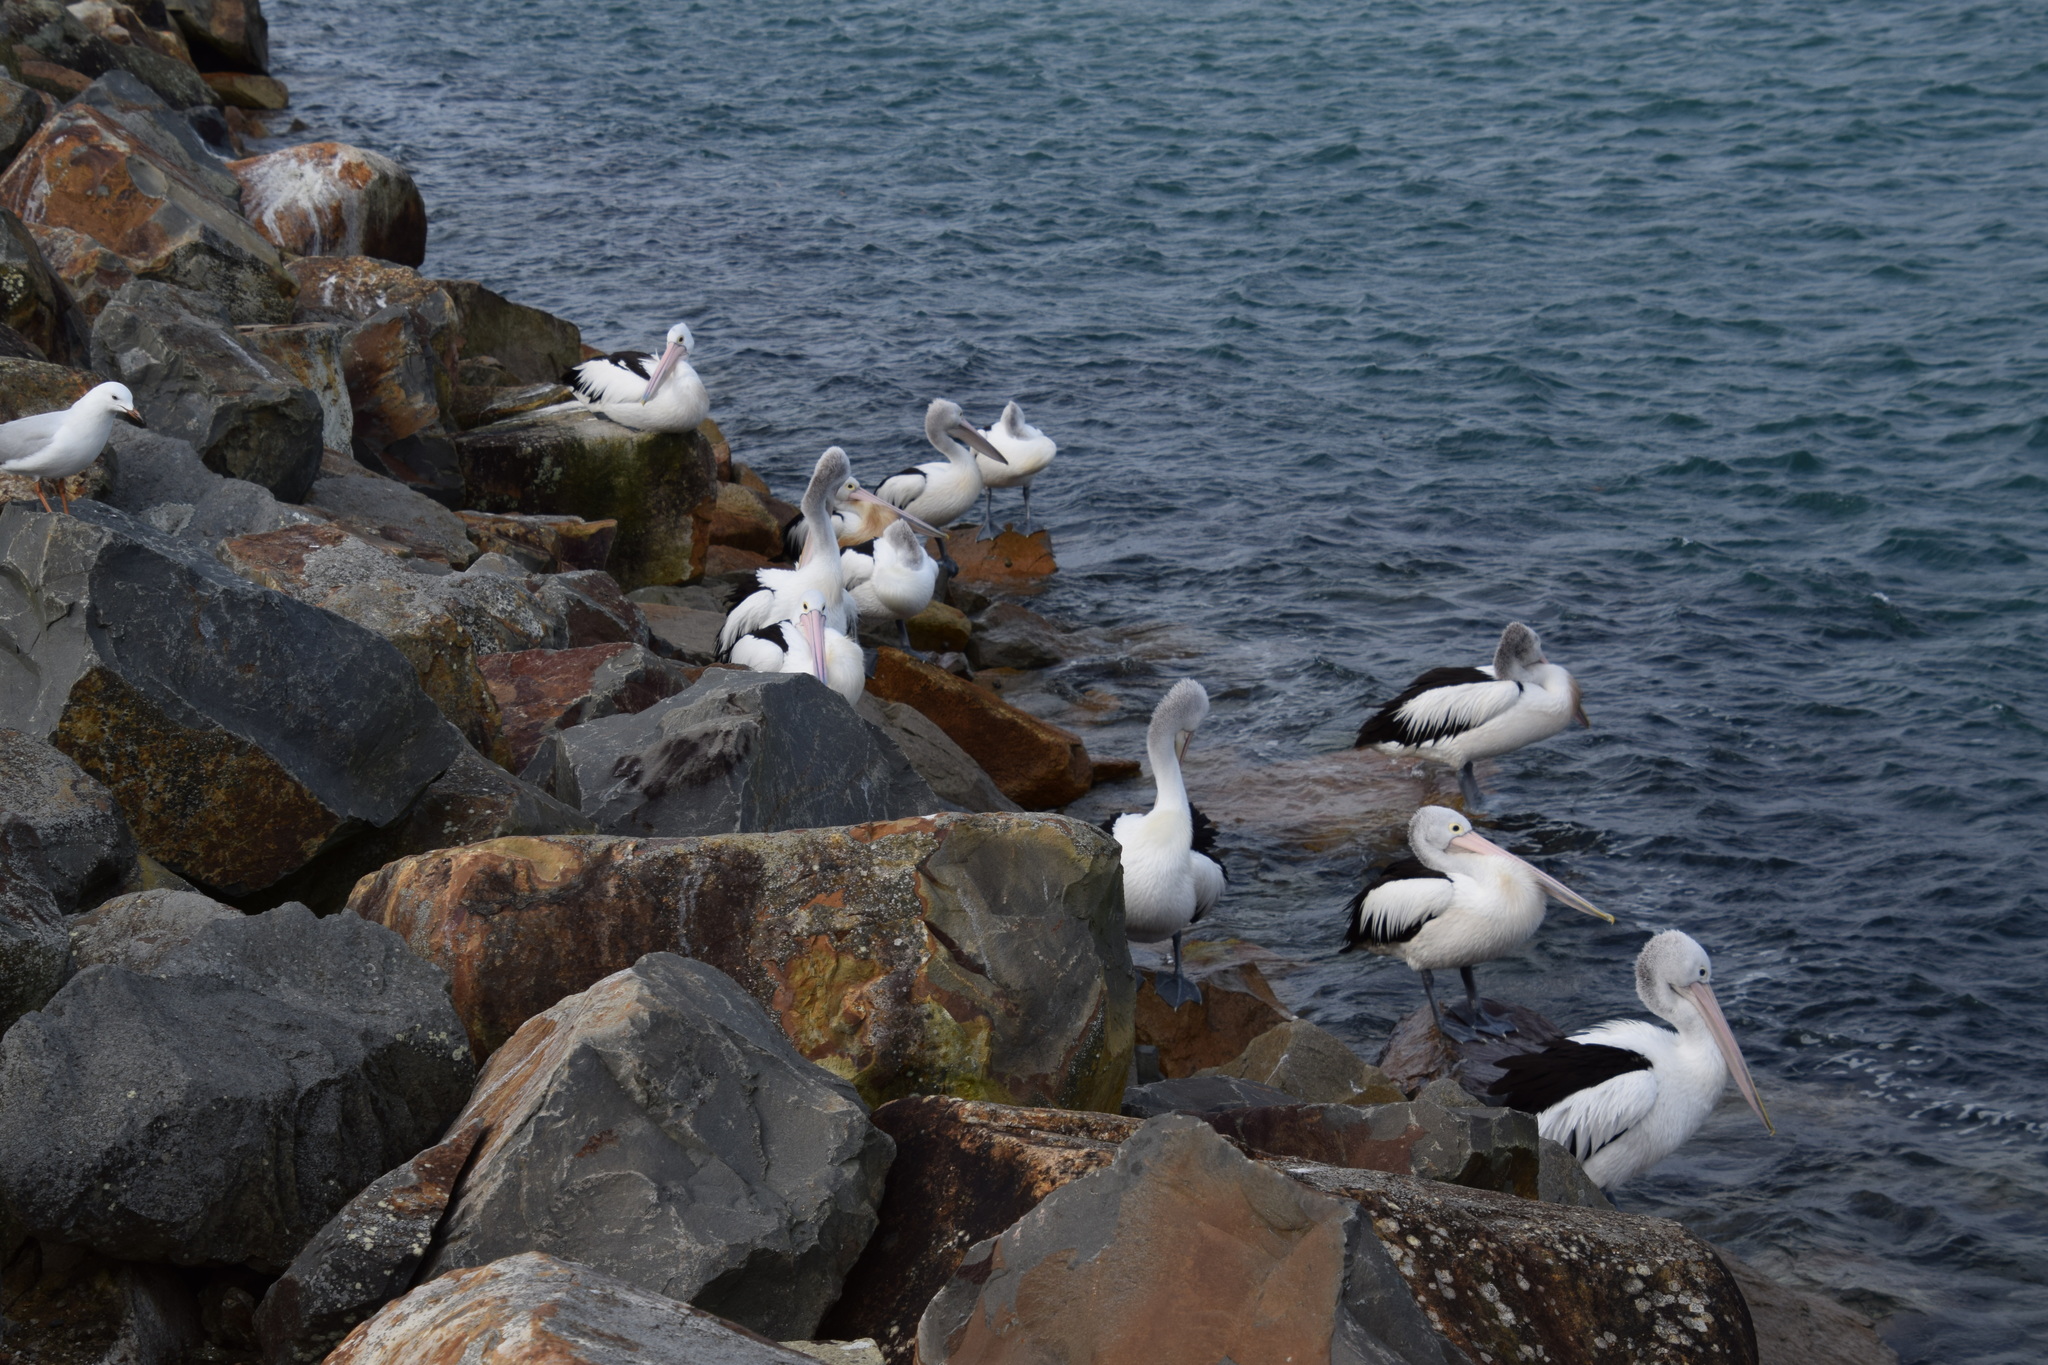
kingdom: Animalia
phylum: Chordata
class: Aves
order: Pelecaniformes
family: Pelecanidae
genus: Pelecanus
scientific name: Pelecanus conspicillatus
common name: Australian pelican
